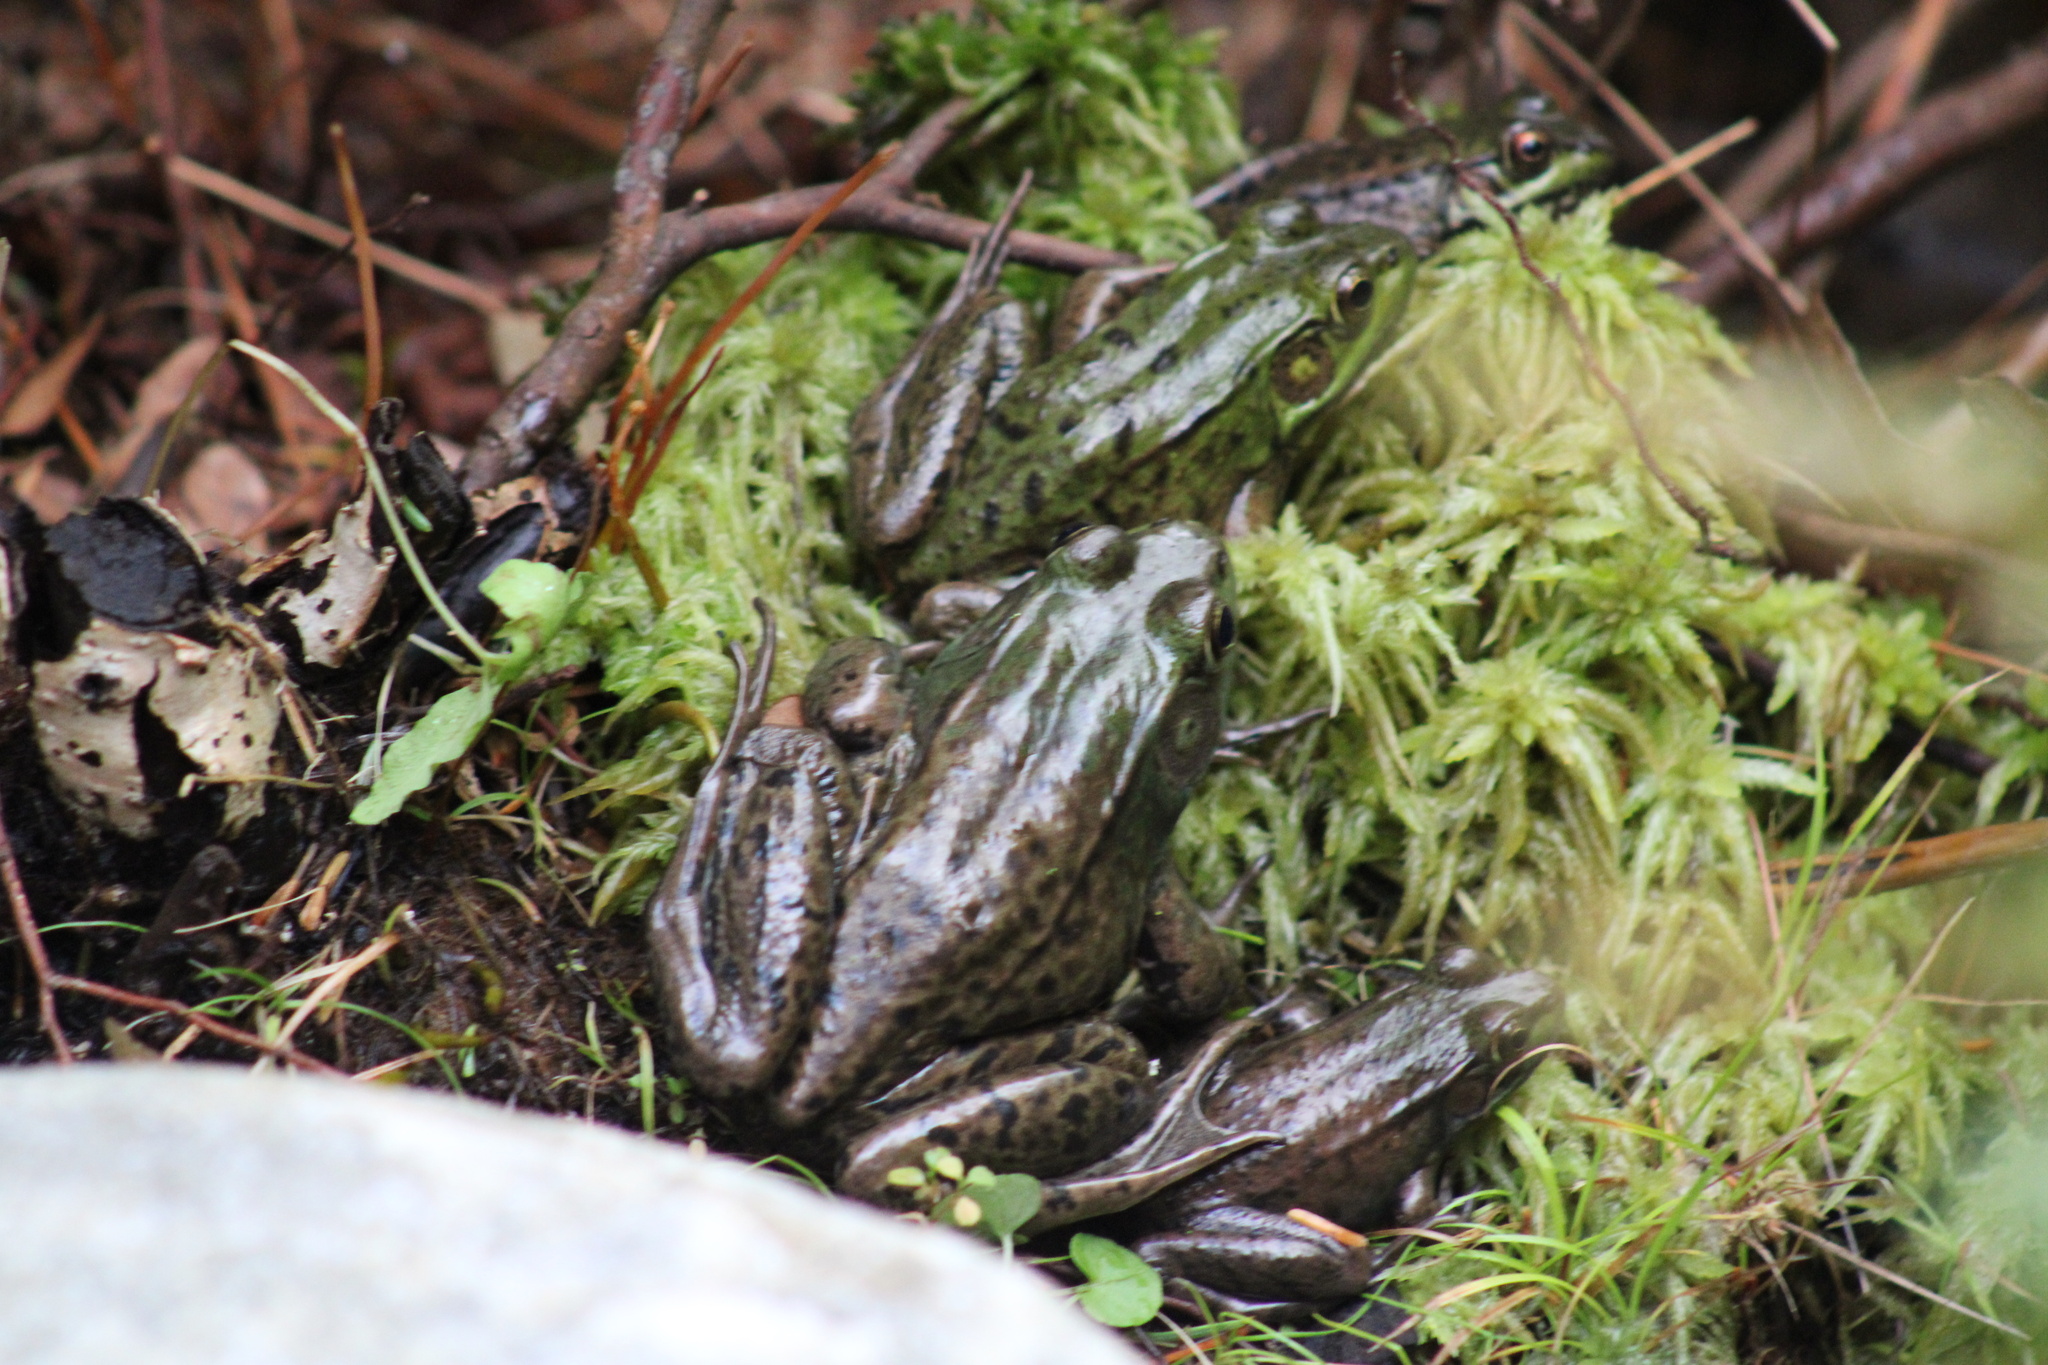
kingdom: Animalia
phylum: Chordata
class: Amphibia
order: Anura
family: Ranidae
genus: Lithobates
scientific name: Lithobates clamitans
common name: Green frog
